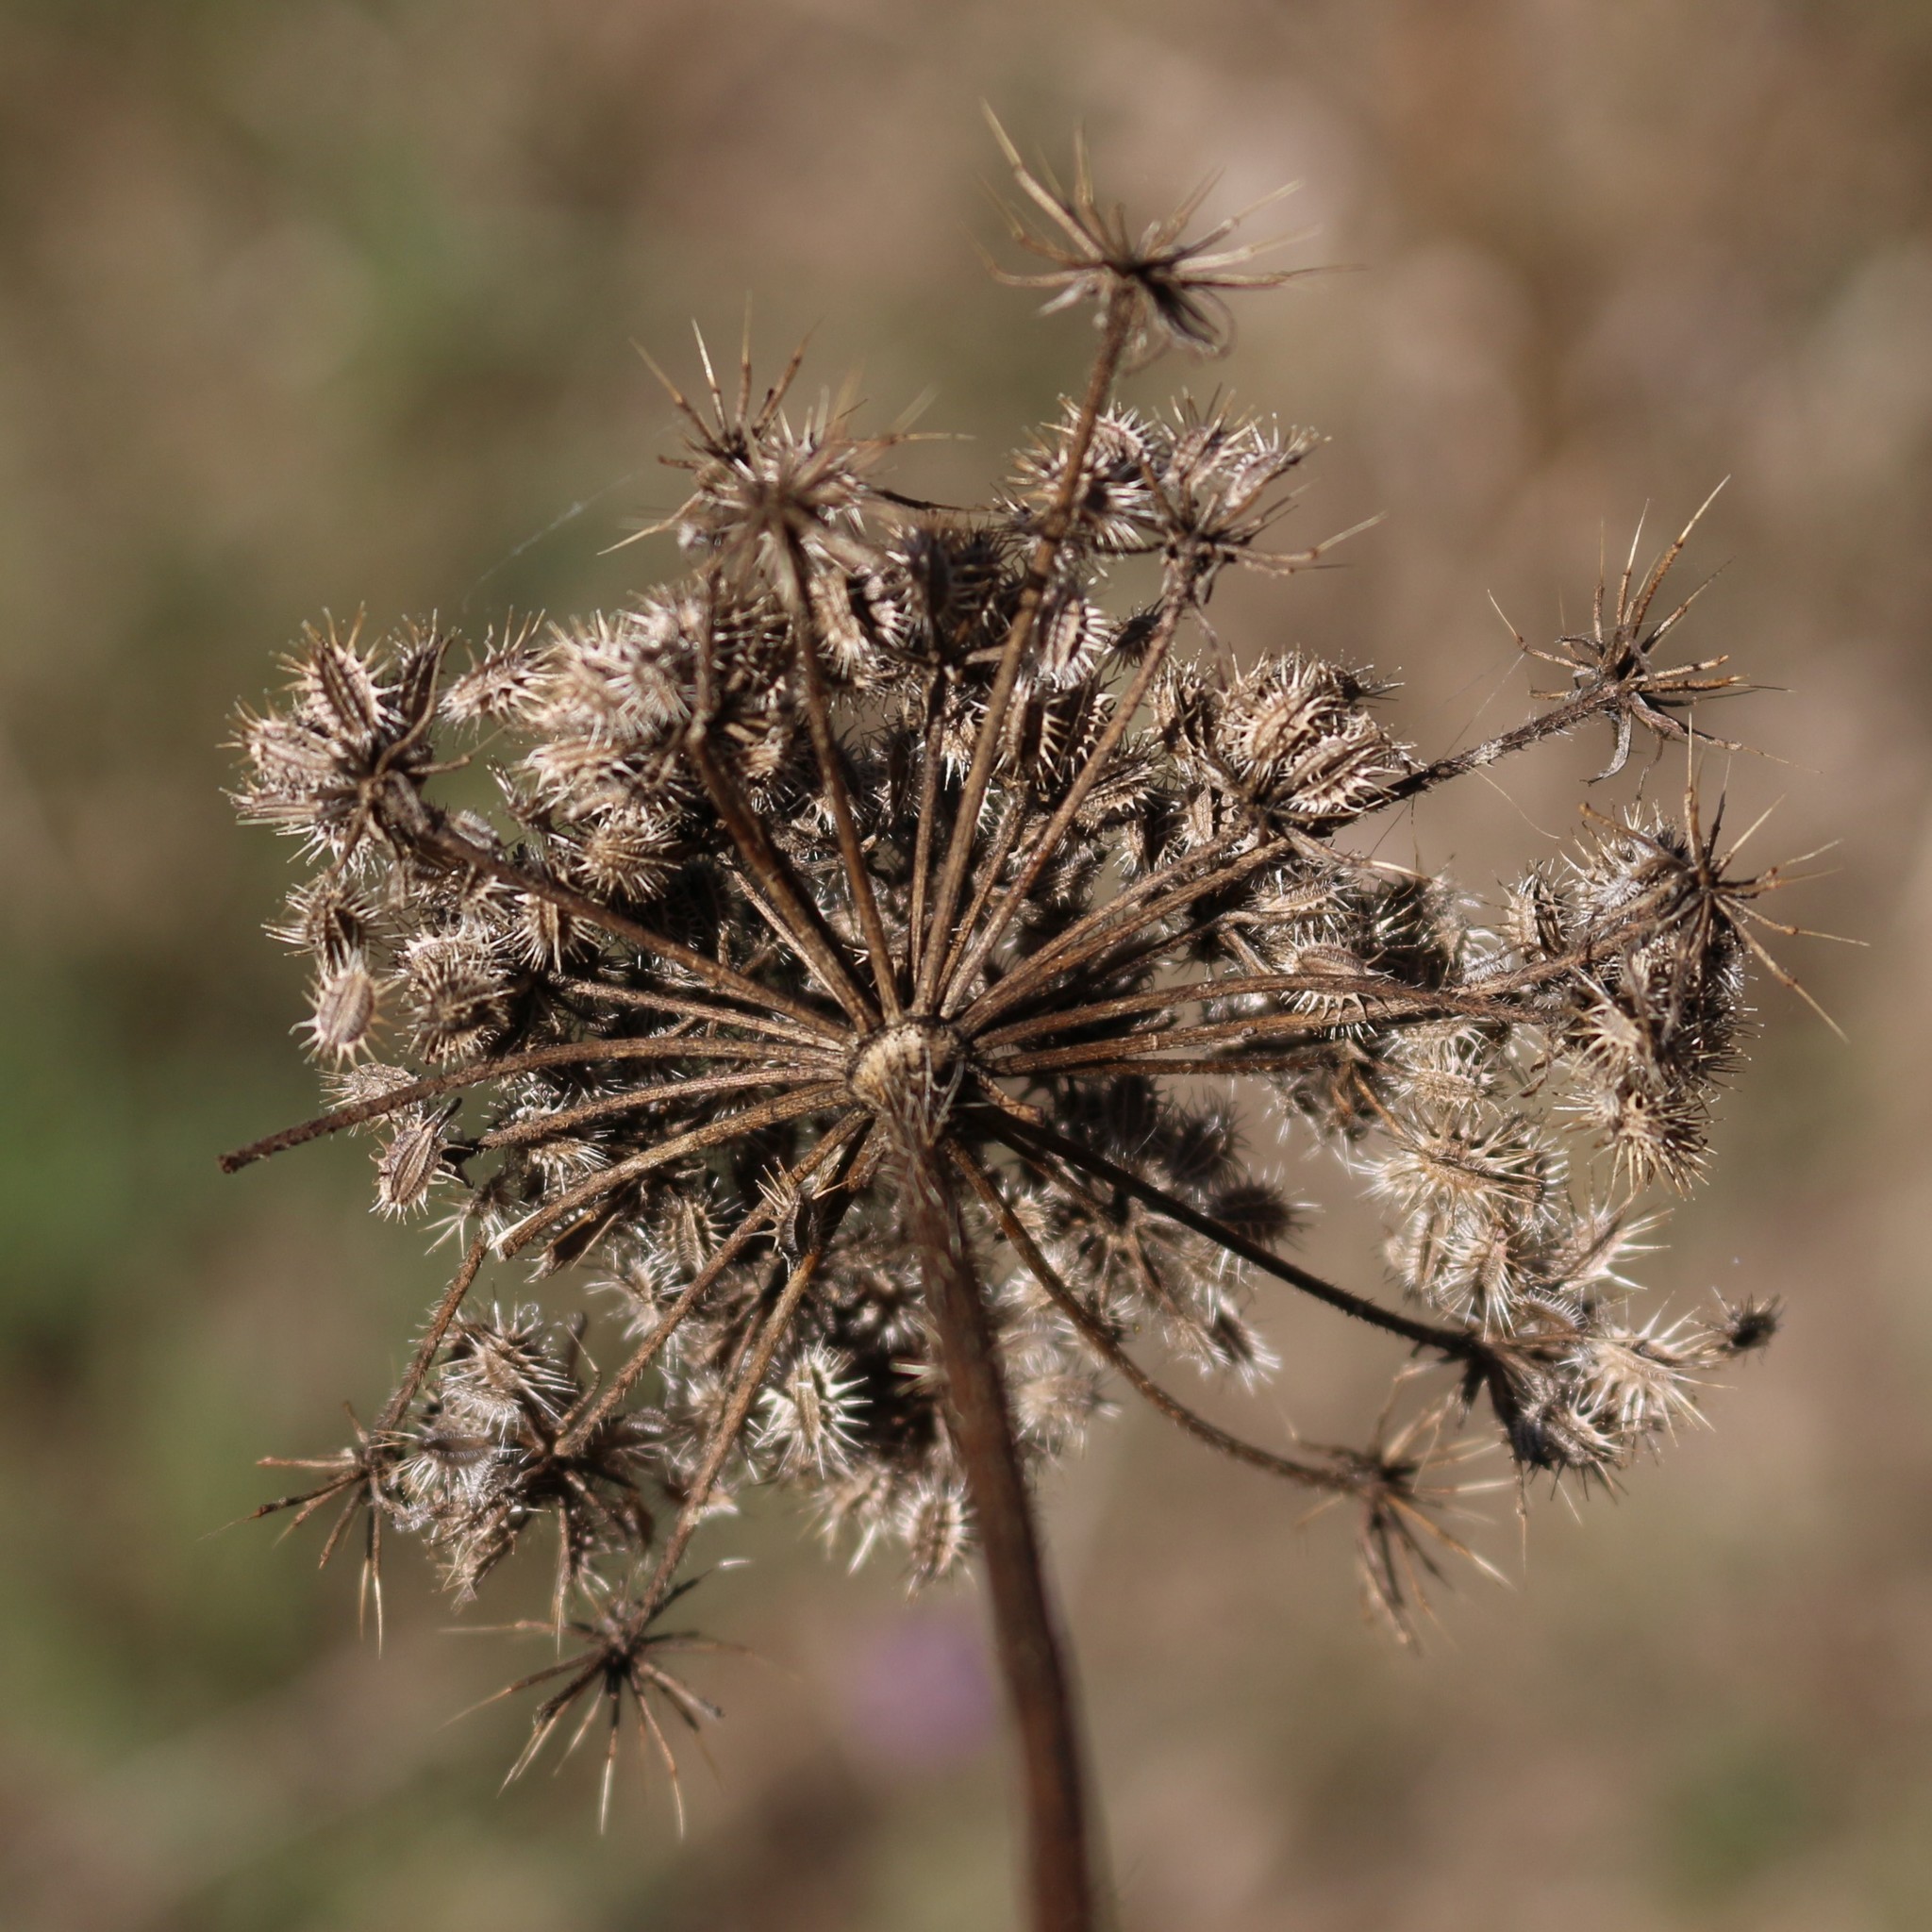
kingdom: Plantae
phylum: Tracheophyta
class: Magnoliopsida
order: Apiales
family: Apiaceae
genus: Daucus
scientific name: Daucus carota
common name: Wild carrot
